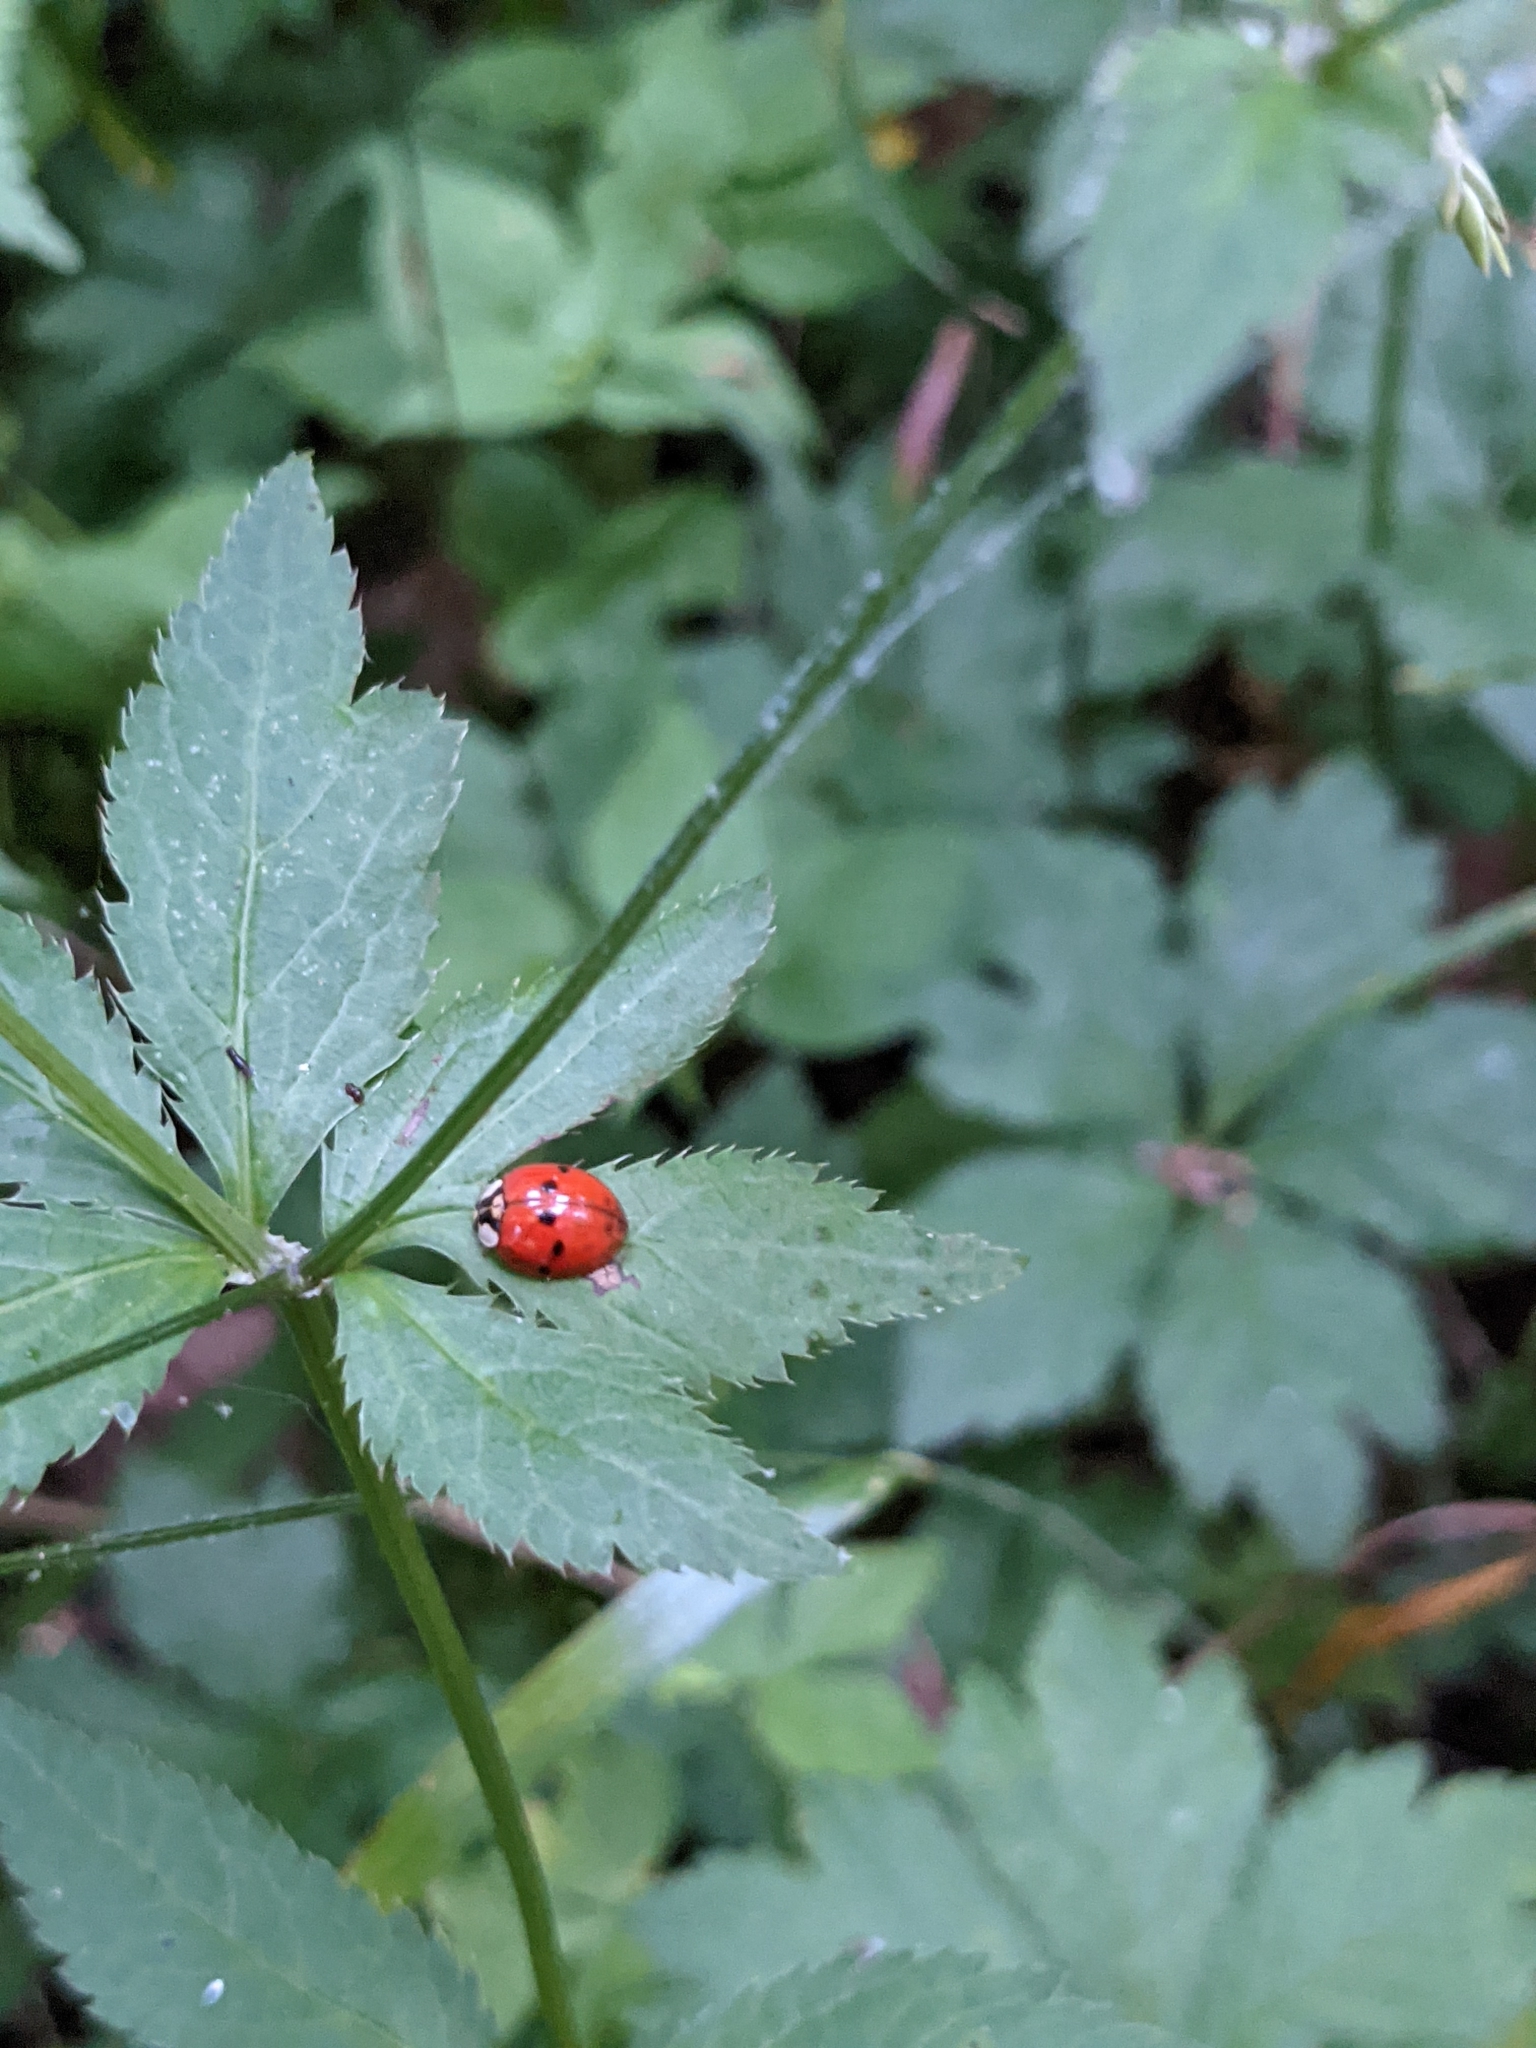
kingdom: Animalia
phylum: Arthropoda
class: Insecta
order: Coleoptera
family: Coccinellidae
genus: Harmonia
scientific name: Harmonia axyridis
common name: Harlequin ladybird
